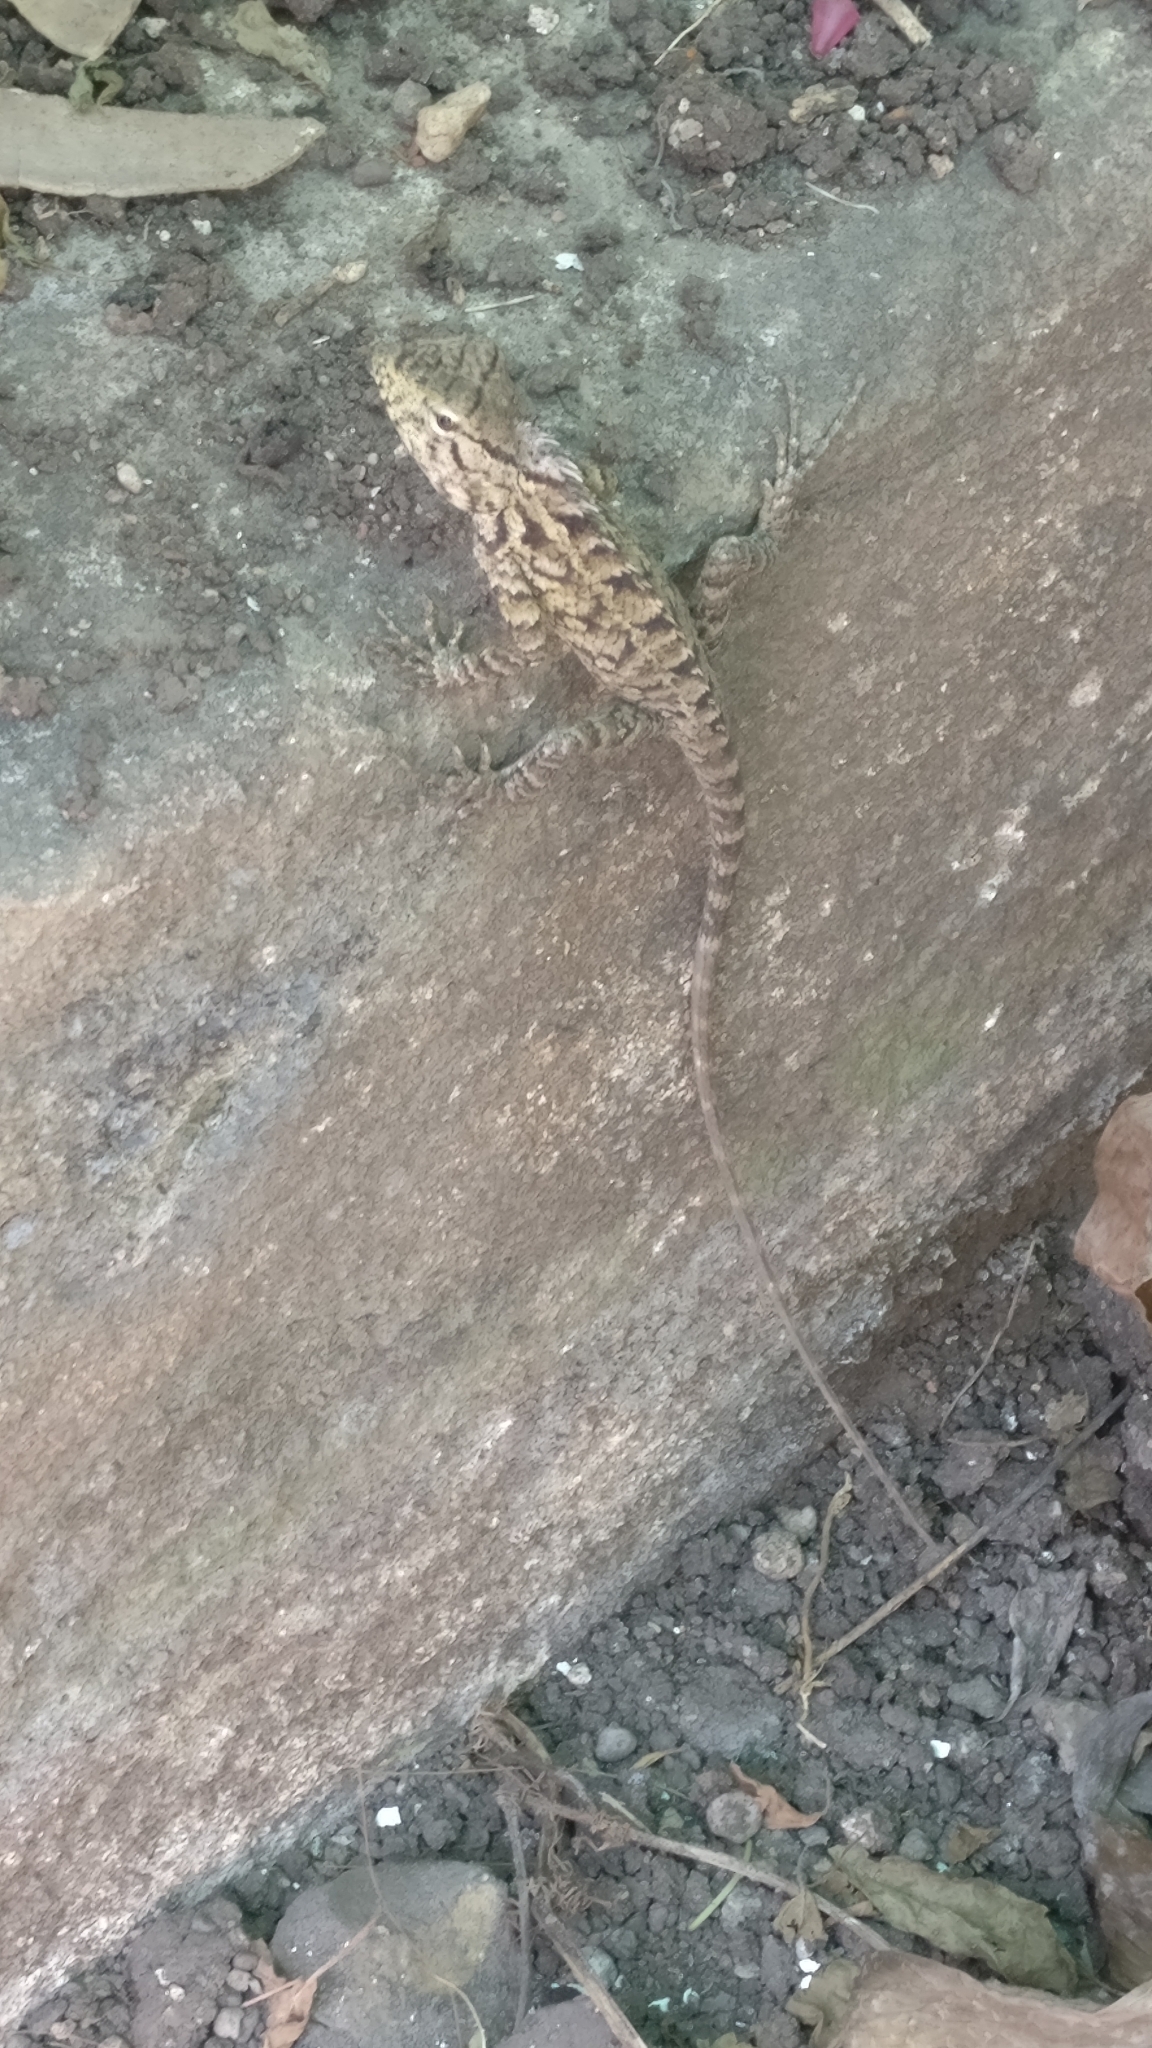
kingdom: Animalia
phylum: Chordata
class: Squamata
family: Agamidae
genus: Calotes
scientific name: Calotes versicolor
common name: Oriental garden lizard
